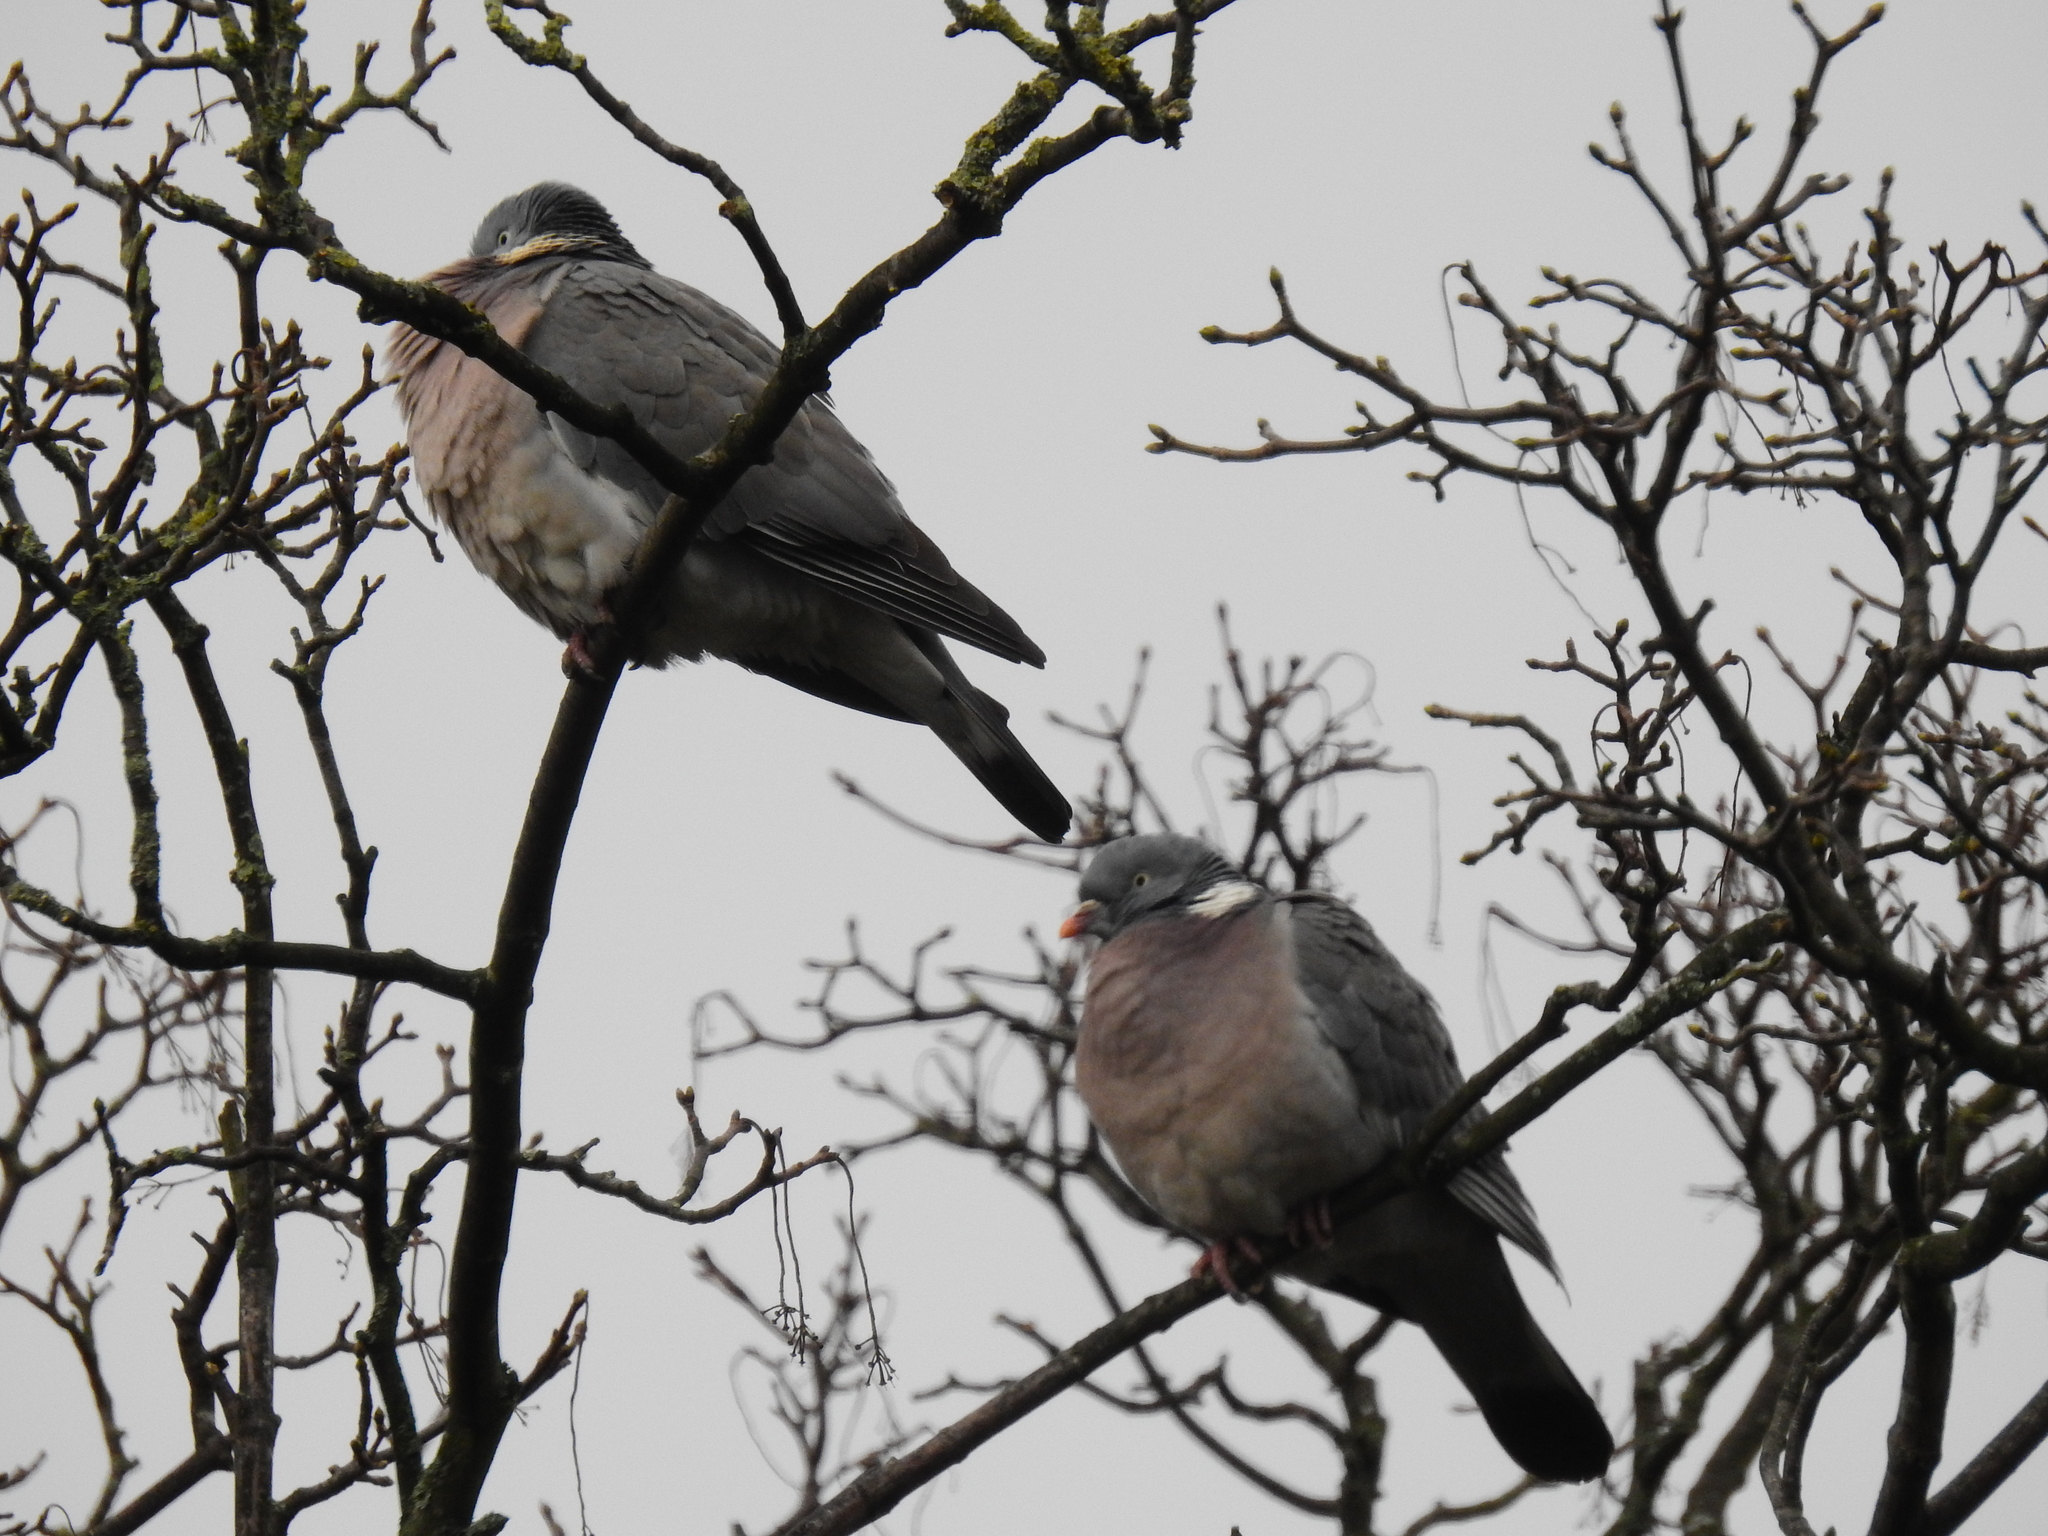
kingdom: Animalia
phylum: Chordata
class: Aves
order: Columbiformes
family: Columbidae
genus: Columba
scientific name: Columba palumbus
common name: Common wood pigeon
